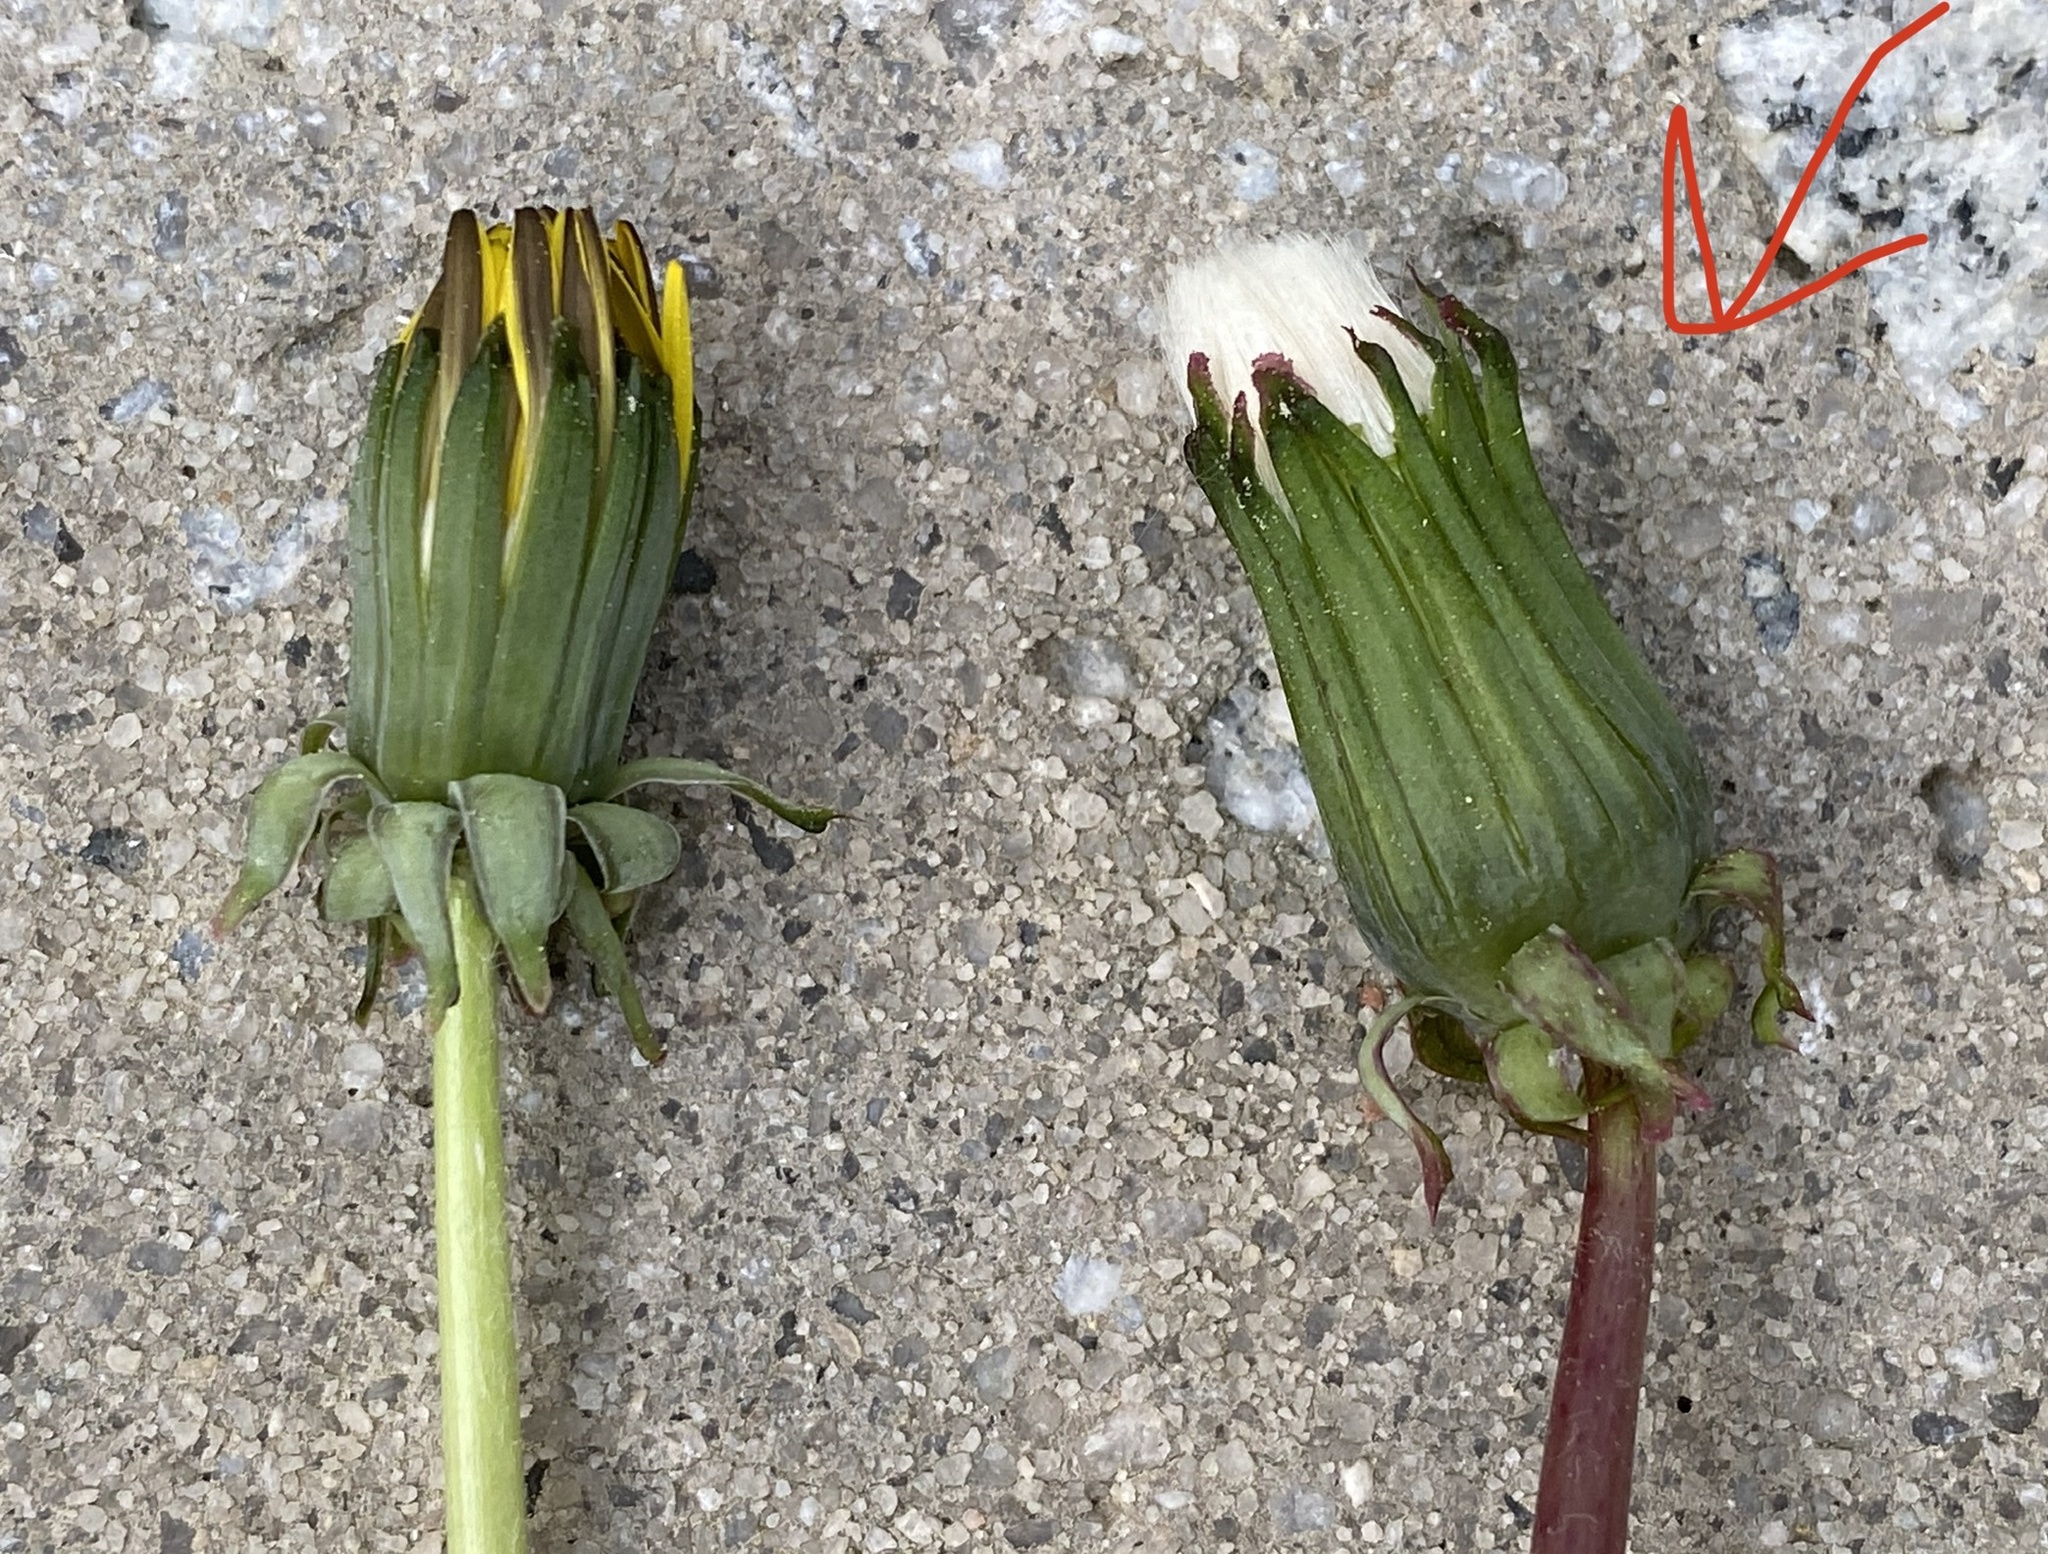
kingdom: Plantae
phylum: Tracheophyta
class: Magnoliopsida
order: Asterales
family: Asteraceae
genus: Taraxacum
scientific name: Taraxacum erythrospermum
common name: Rock dandelion
